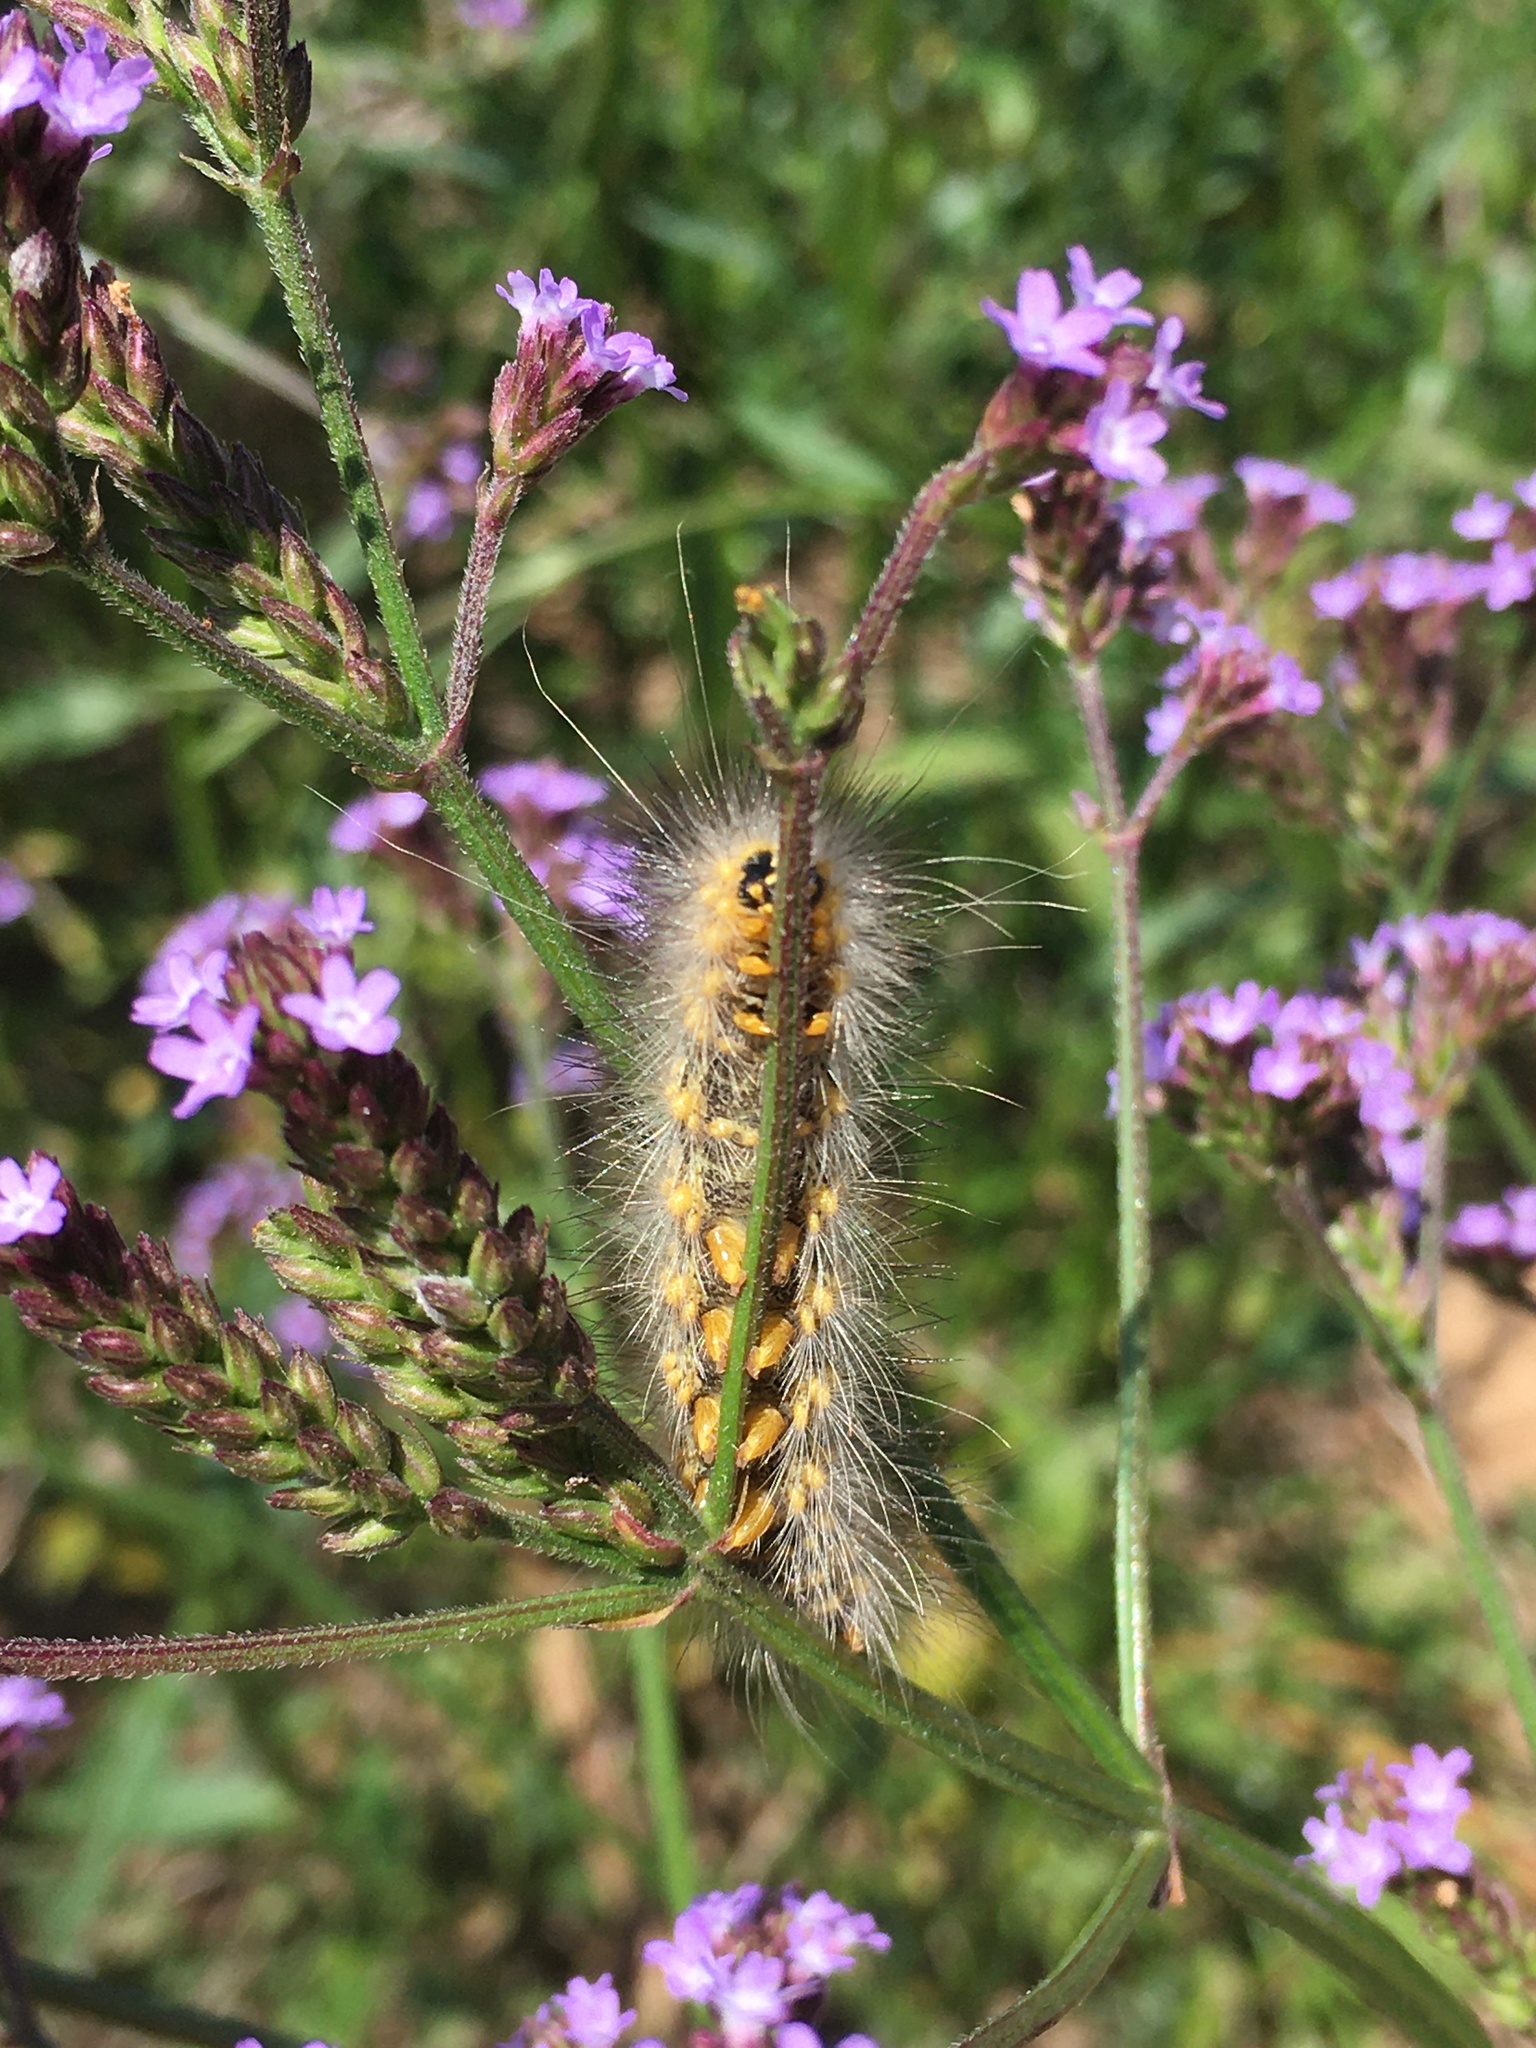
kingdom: Animalia
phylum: Arthropoda
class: Insecta
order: Lepidoptera
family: Erebidae
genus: Estigmene
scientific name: Estigmene acrea
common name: Salt marsh moth
